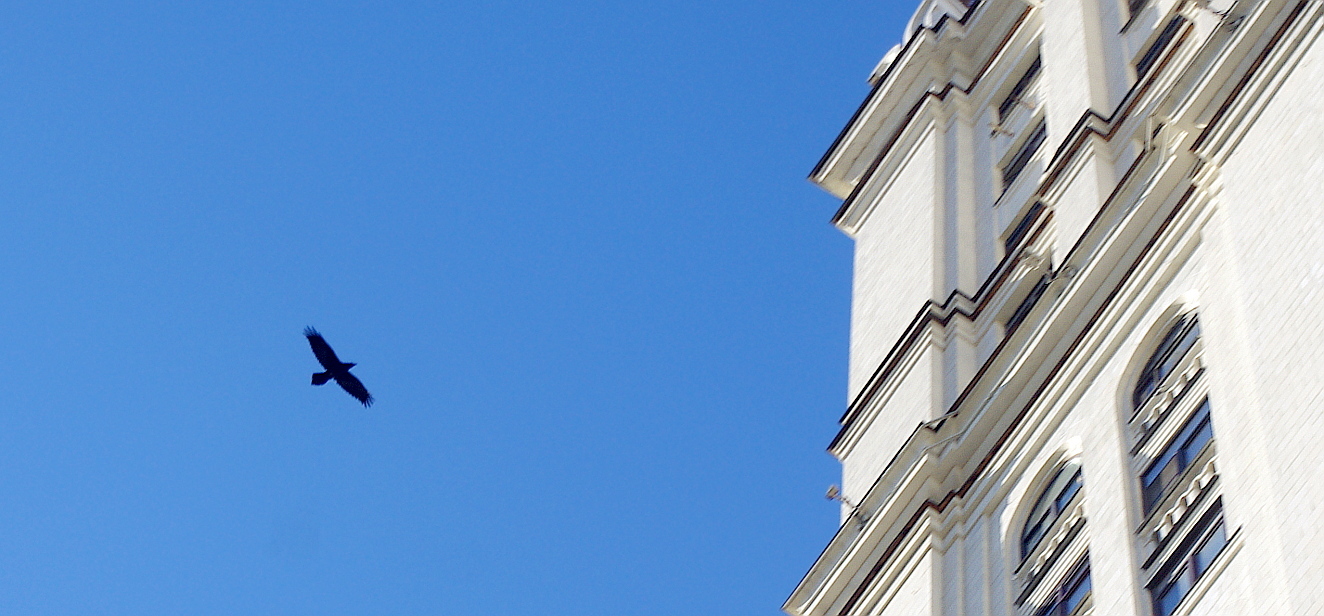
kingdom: Animalia
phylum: Chordata
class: Aves
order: Passeriformes
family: Corvidae
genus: Corvus
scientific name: Corvus corax
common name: Common raven
